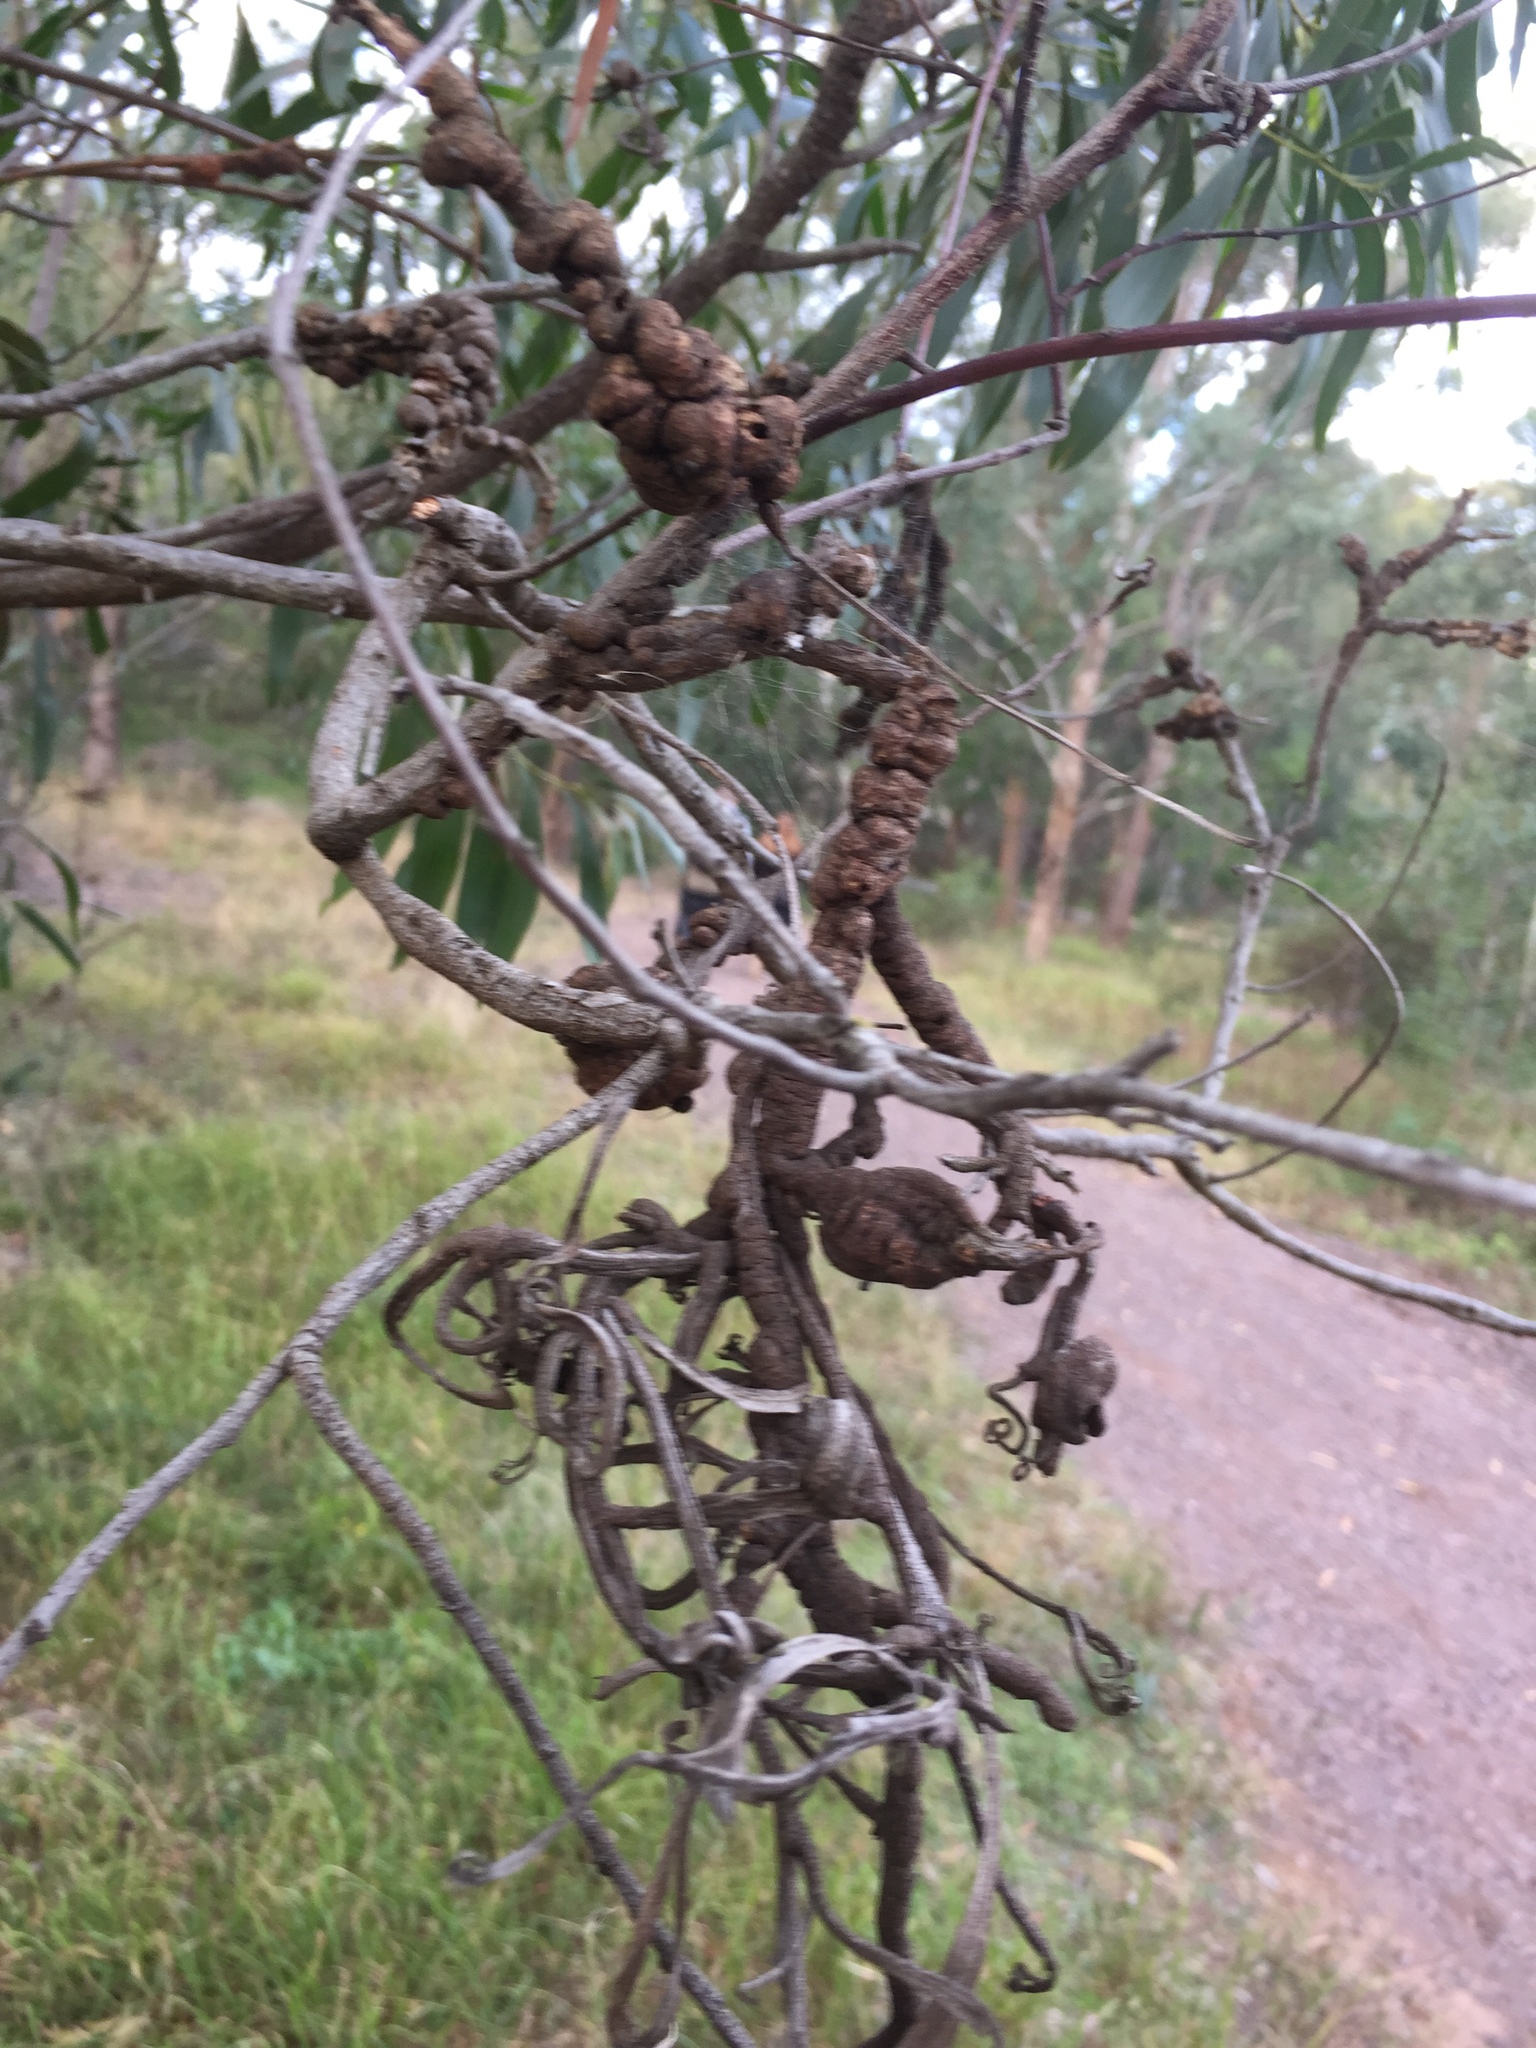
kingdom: Plantae
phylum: Tracheophyta
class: Magnoliopsida
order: Fabales
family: Fabaceae
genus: Acacia
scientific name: Acacia implexa
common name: Black wattle
